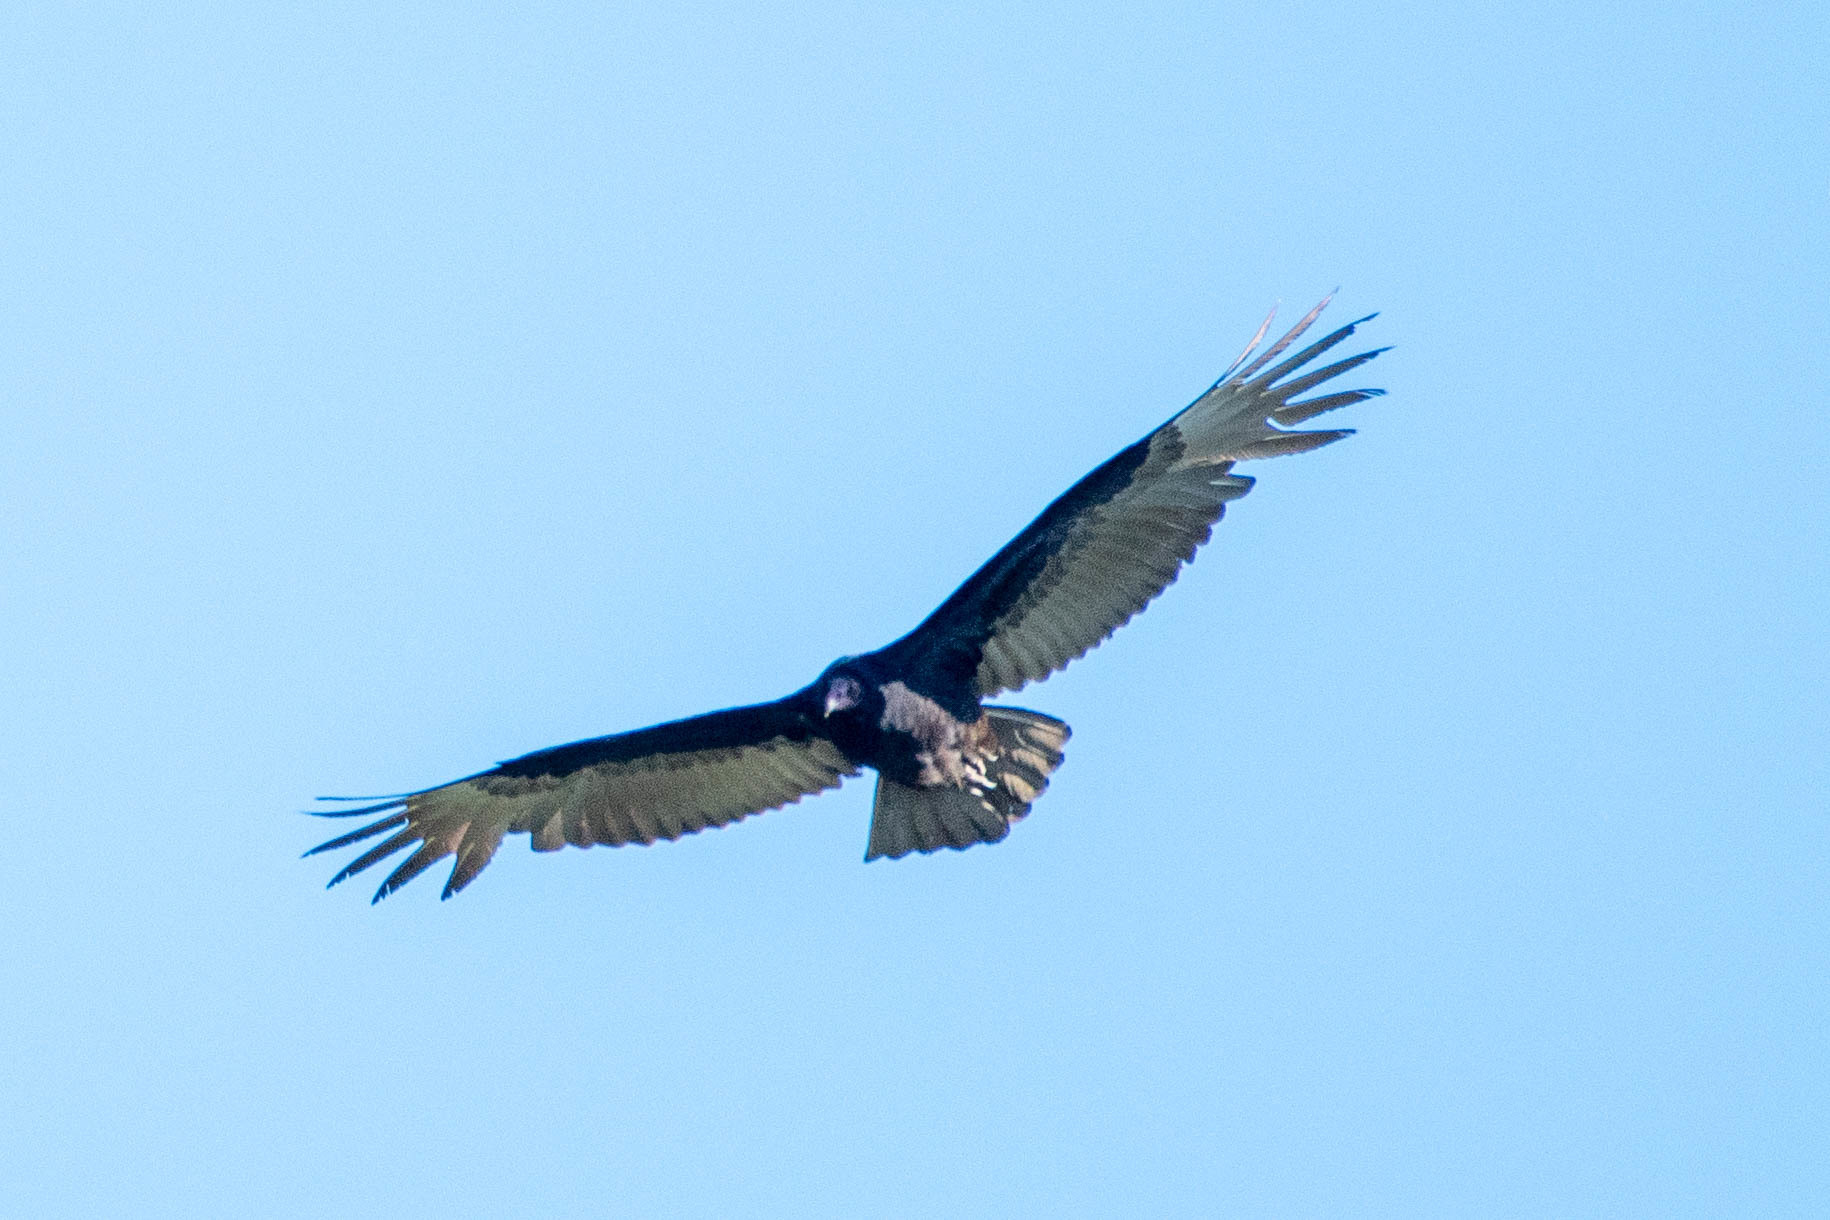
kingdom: Animalia
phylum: Chordata
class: Aves
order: Accipitriformes
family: Cathartidae
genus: Cathartes
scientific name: Cathartes aura
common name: Turkey vulture
